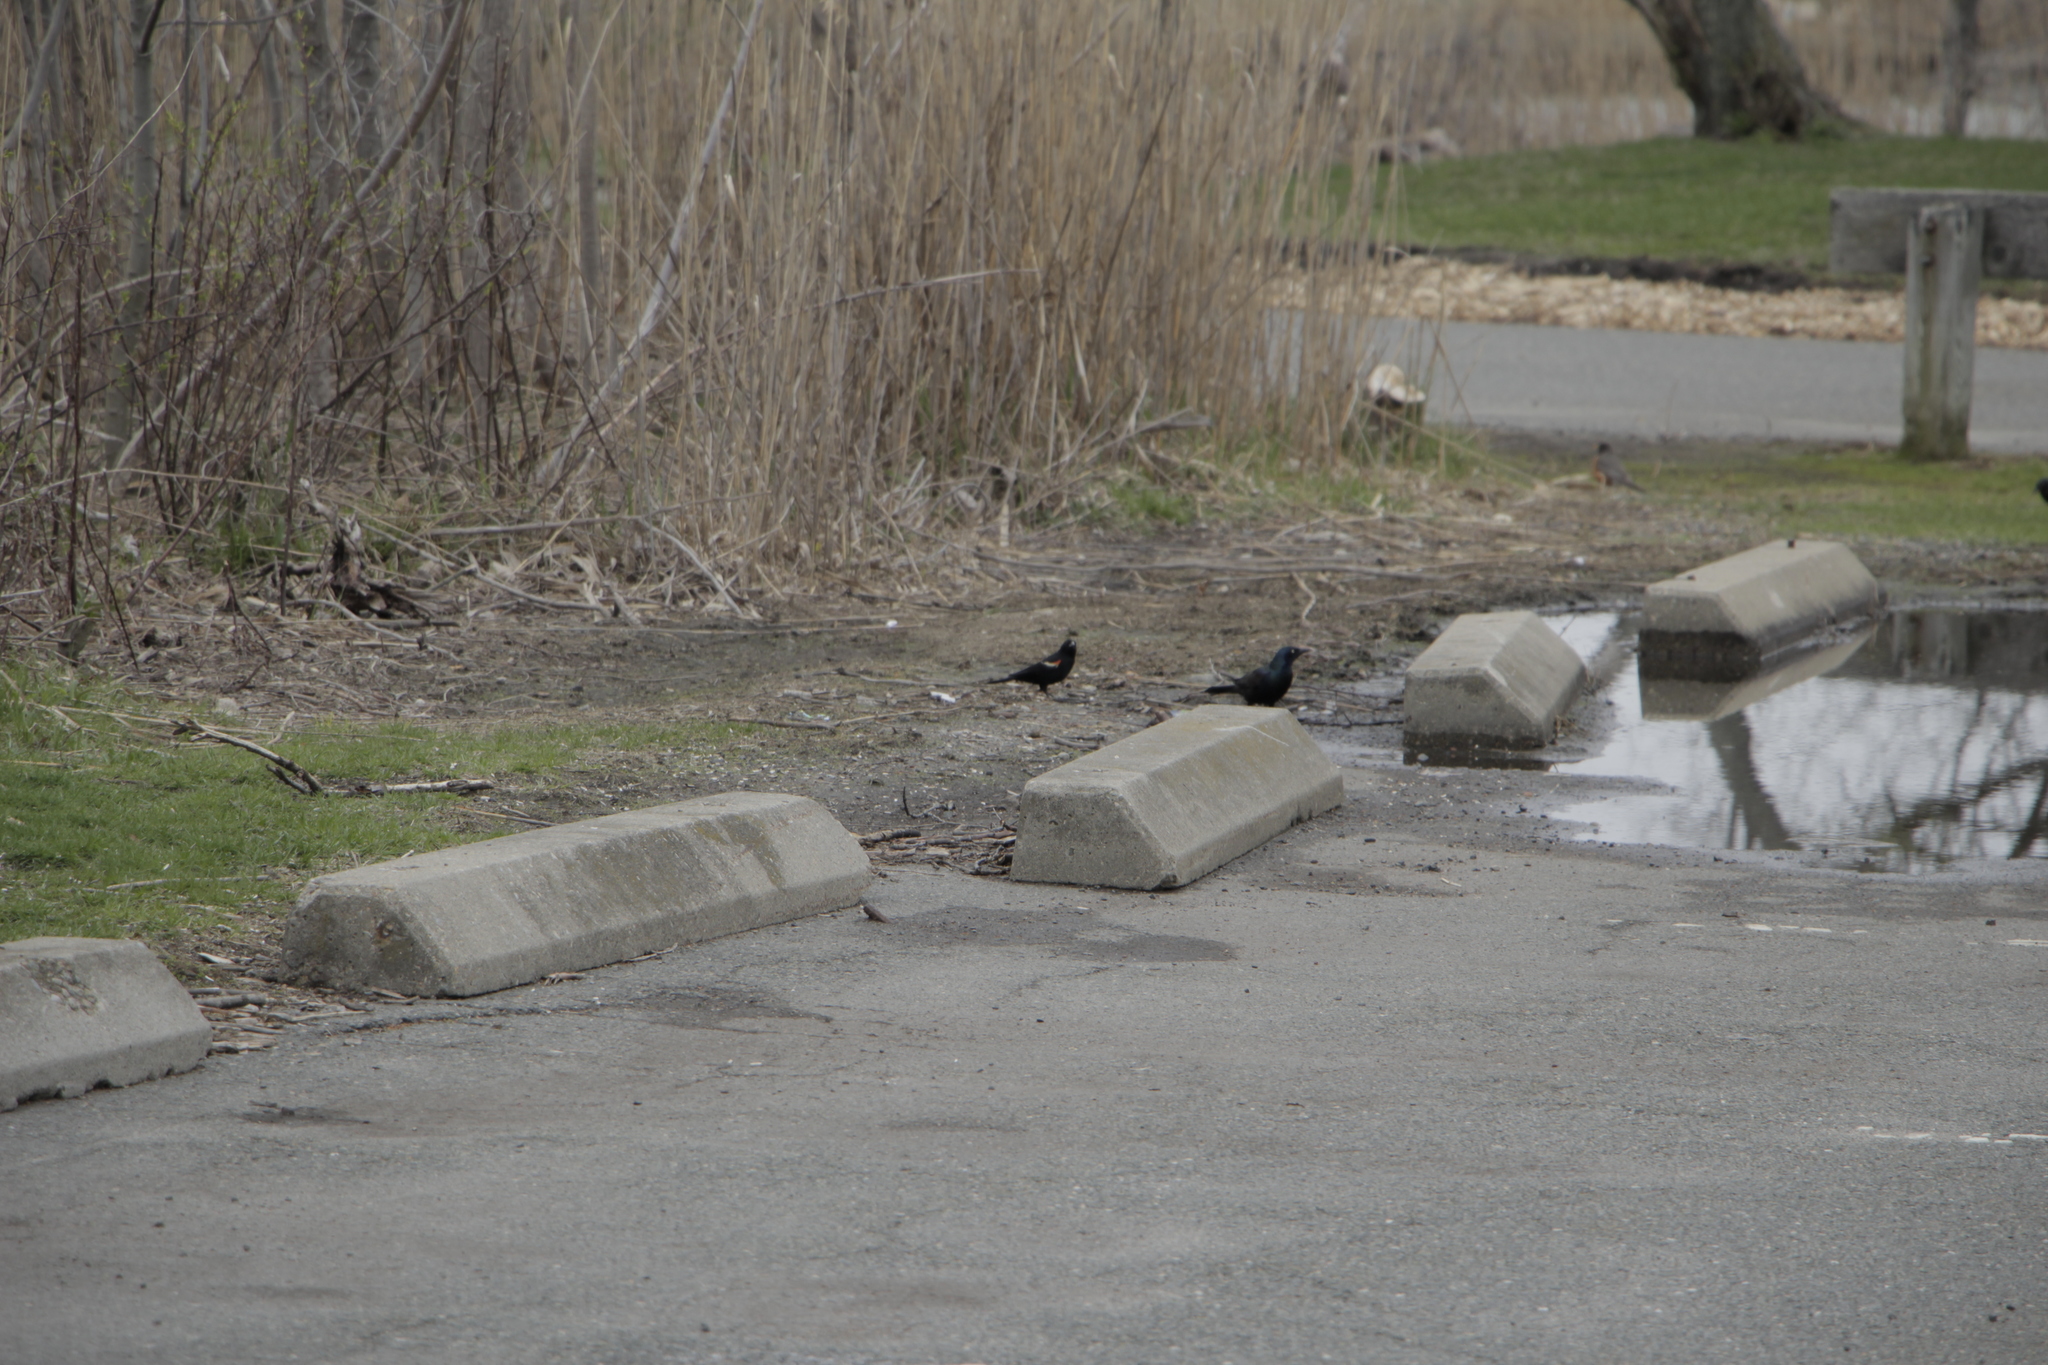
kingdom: Animalia
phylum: Chordata
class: Aves
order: Passeriformes
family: Icteridae
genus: Quiscalus
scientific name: Quiscalus quiscula
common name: Common grackle
